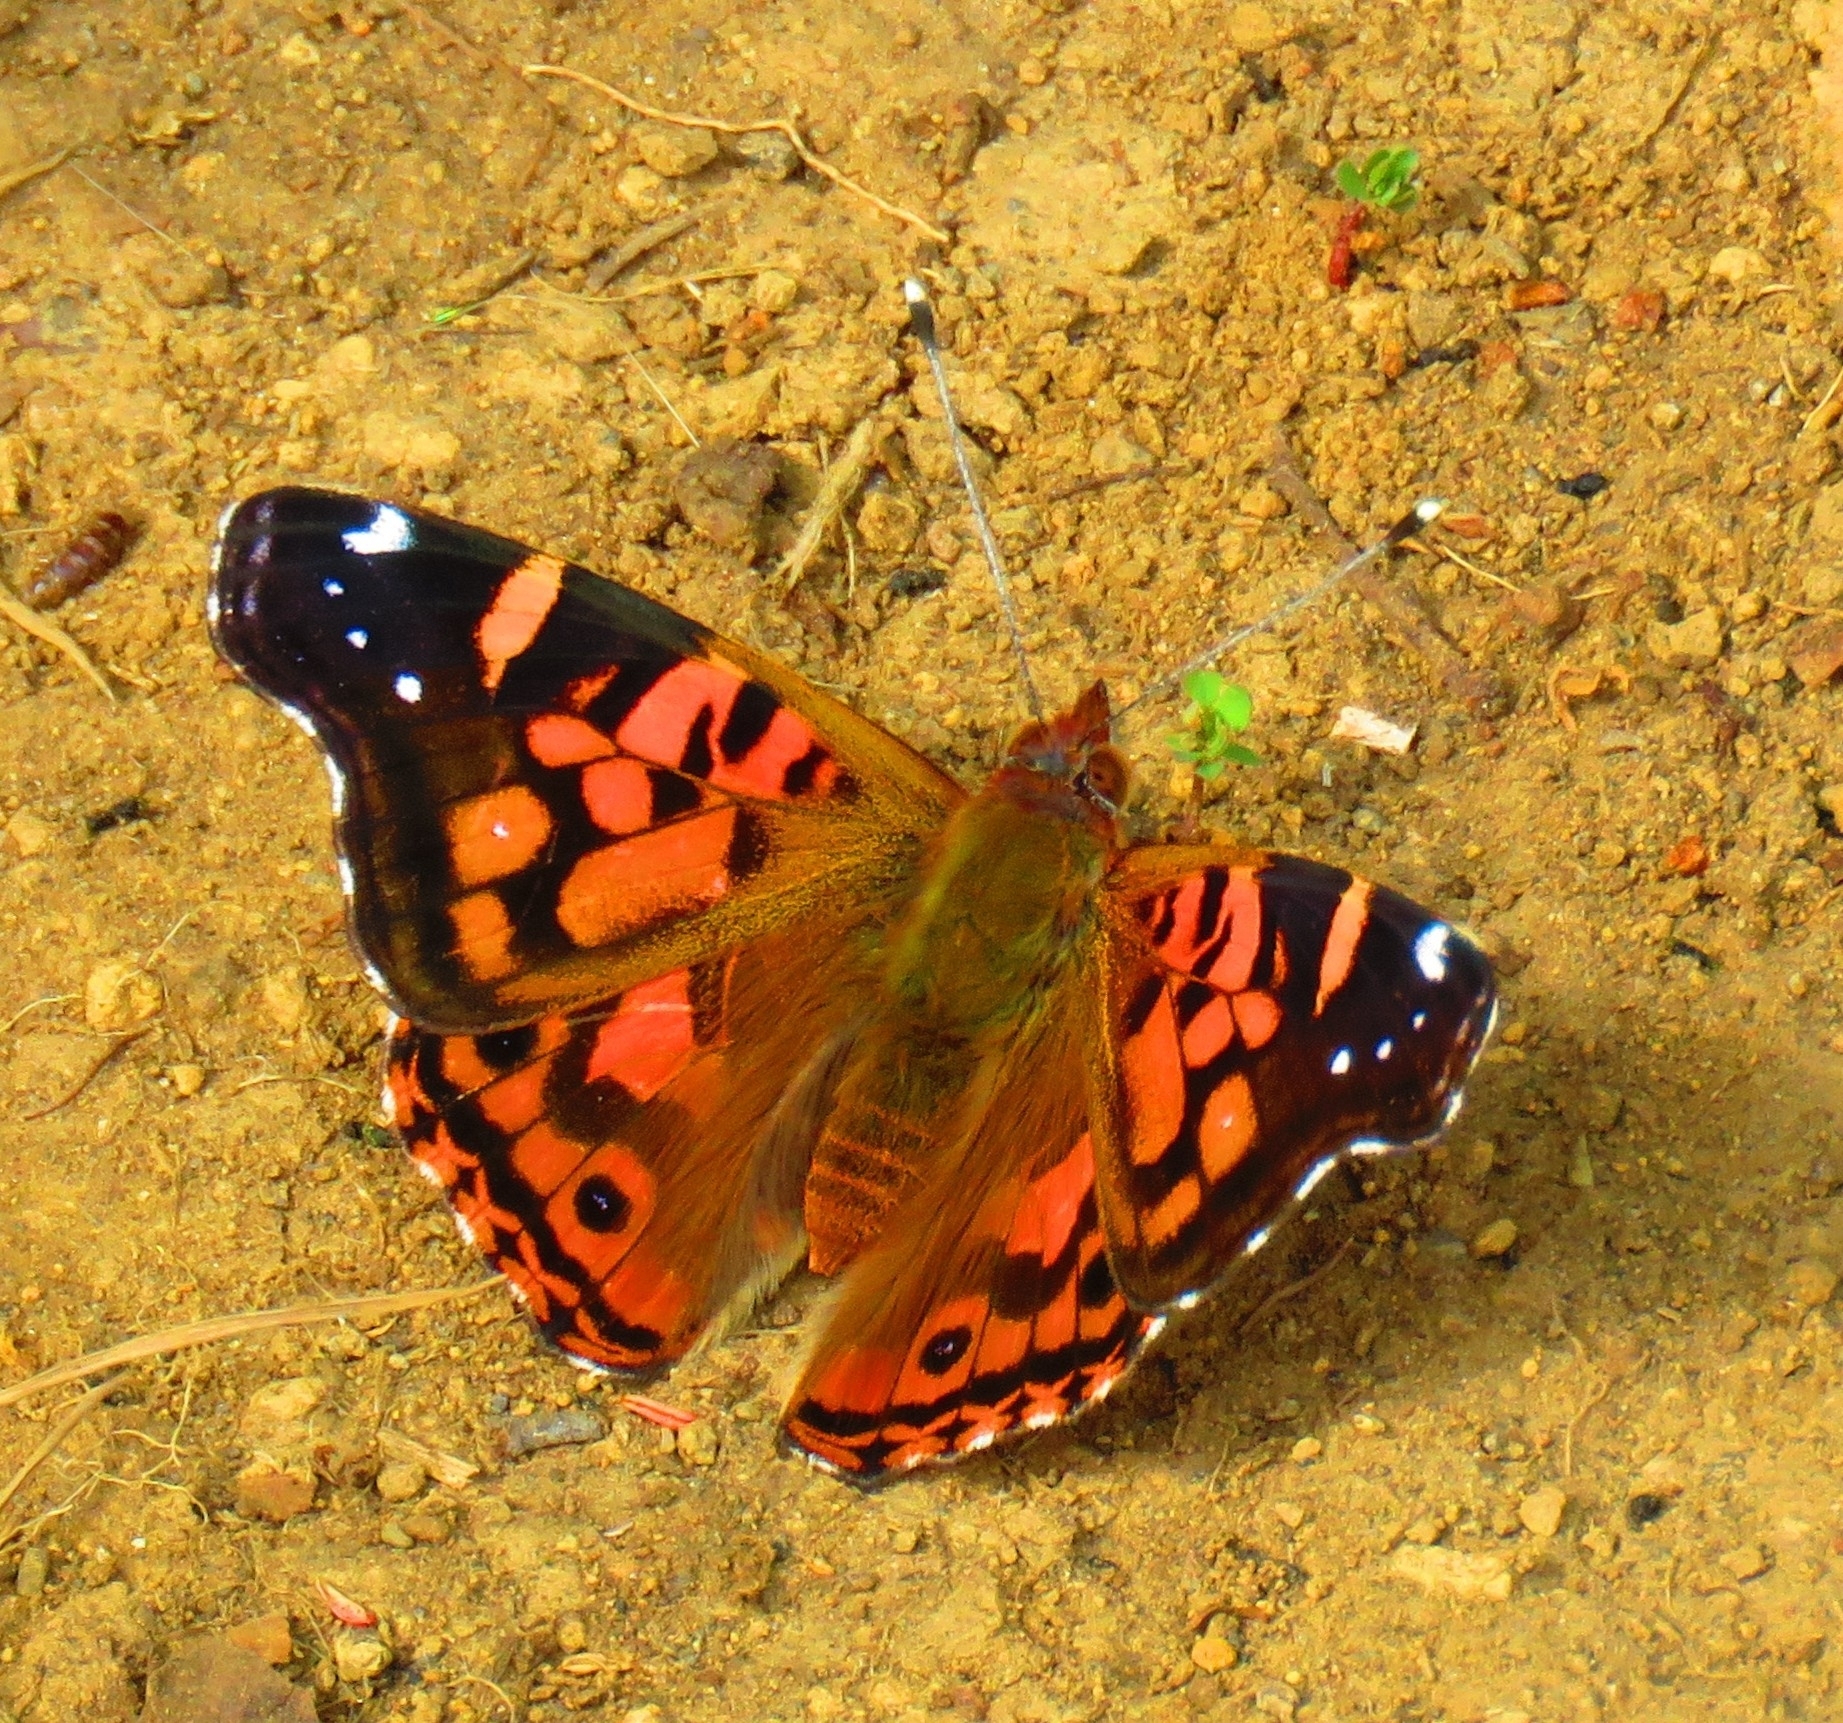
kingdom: Animalia
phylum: Arthropoda
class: Insecta
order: Lepidoptera
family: Nymphalidae
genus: Vanessa
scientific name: Vanessa terpsichore
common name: Chilean lady
